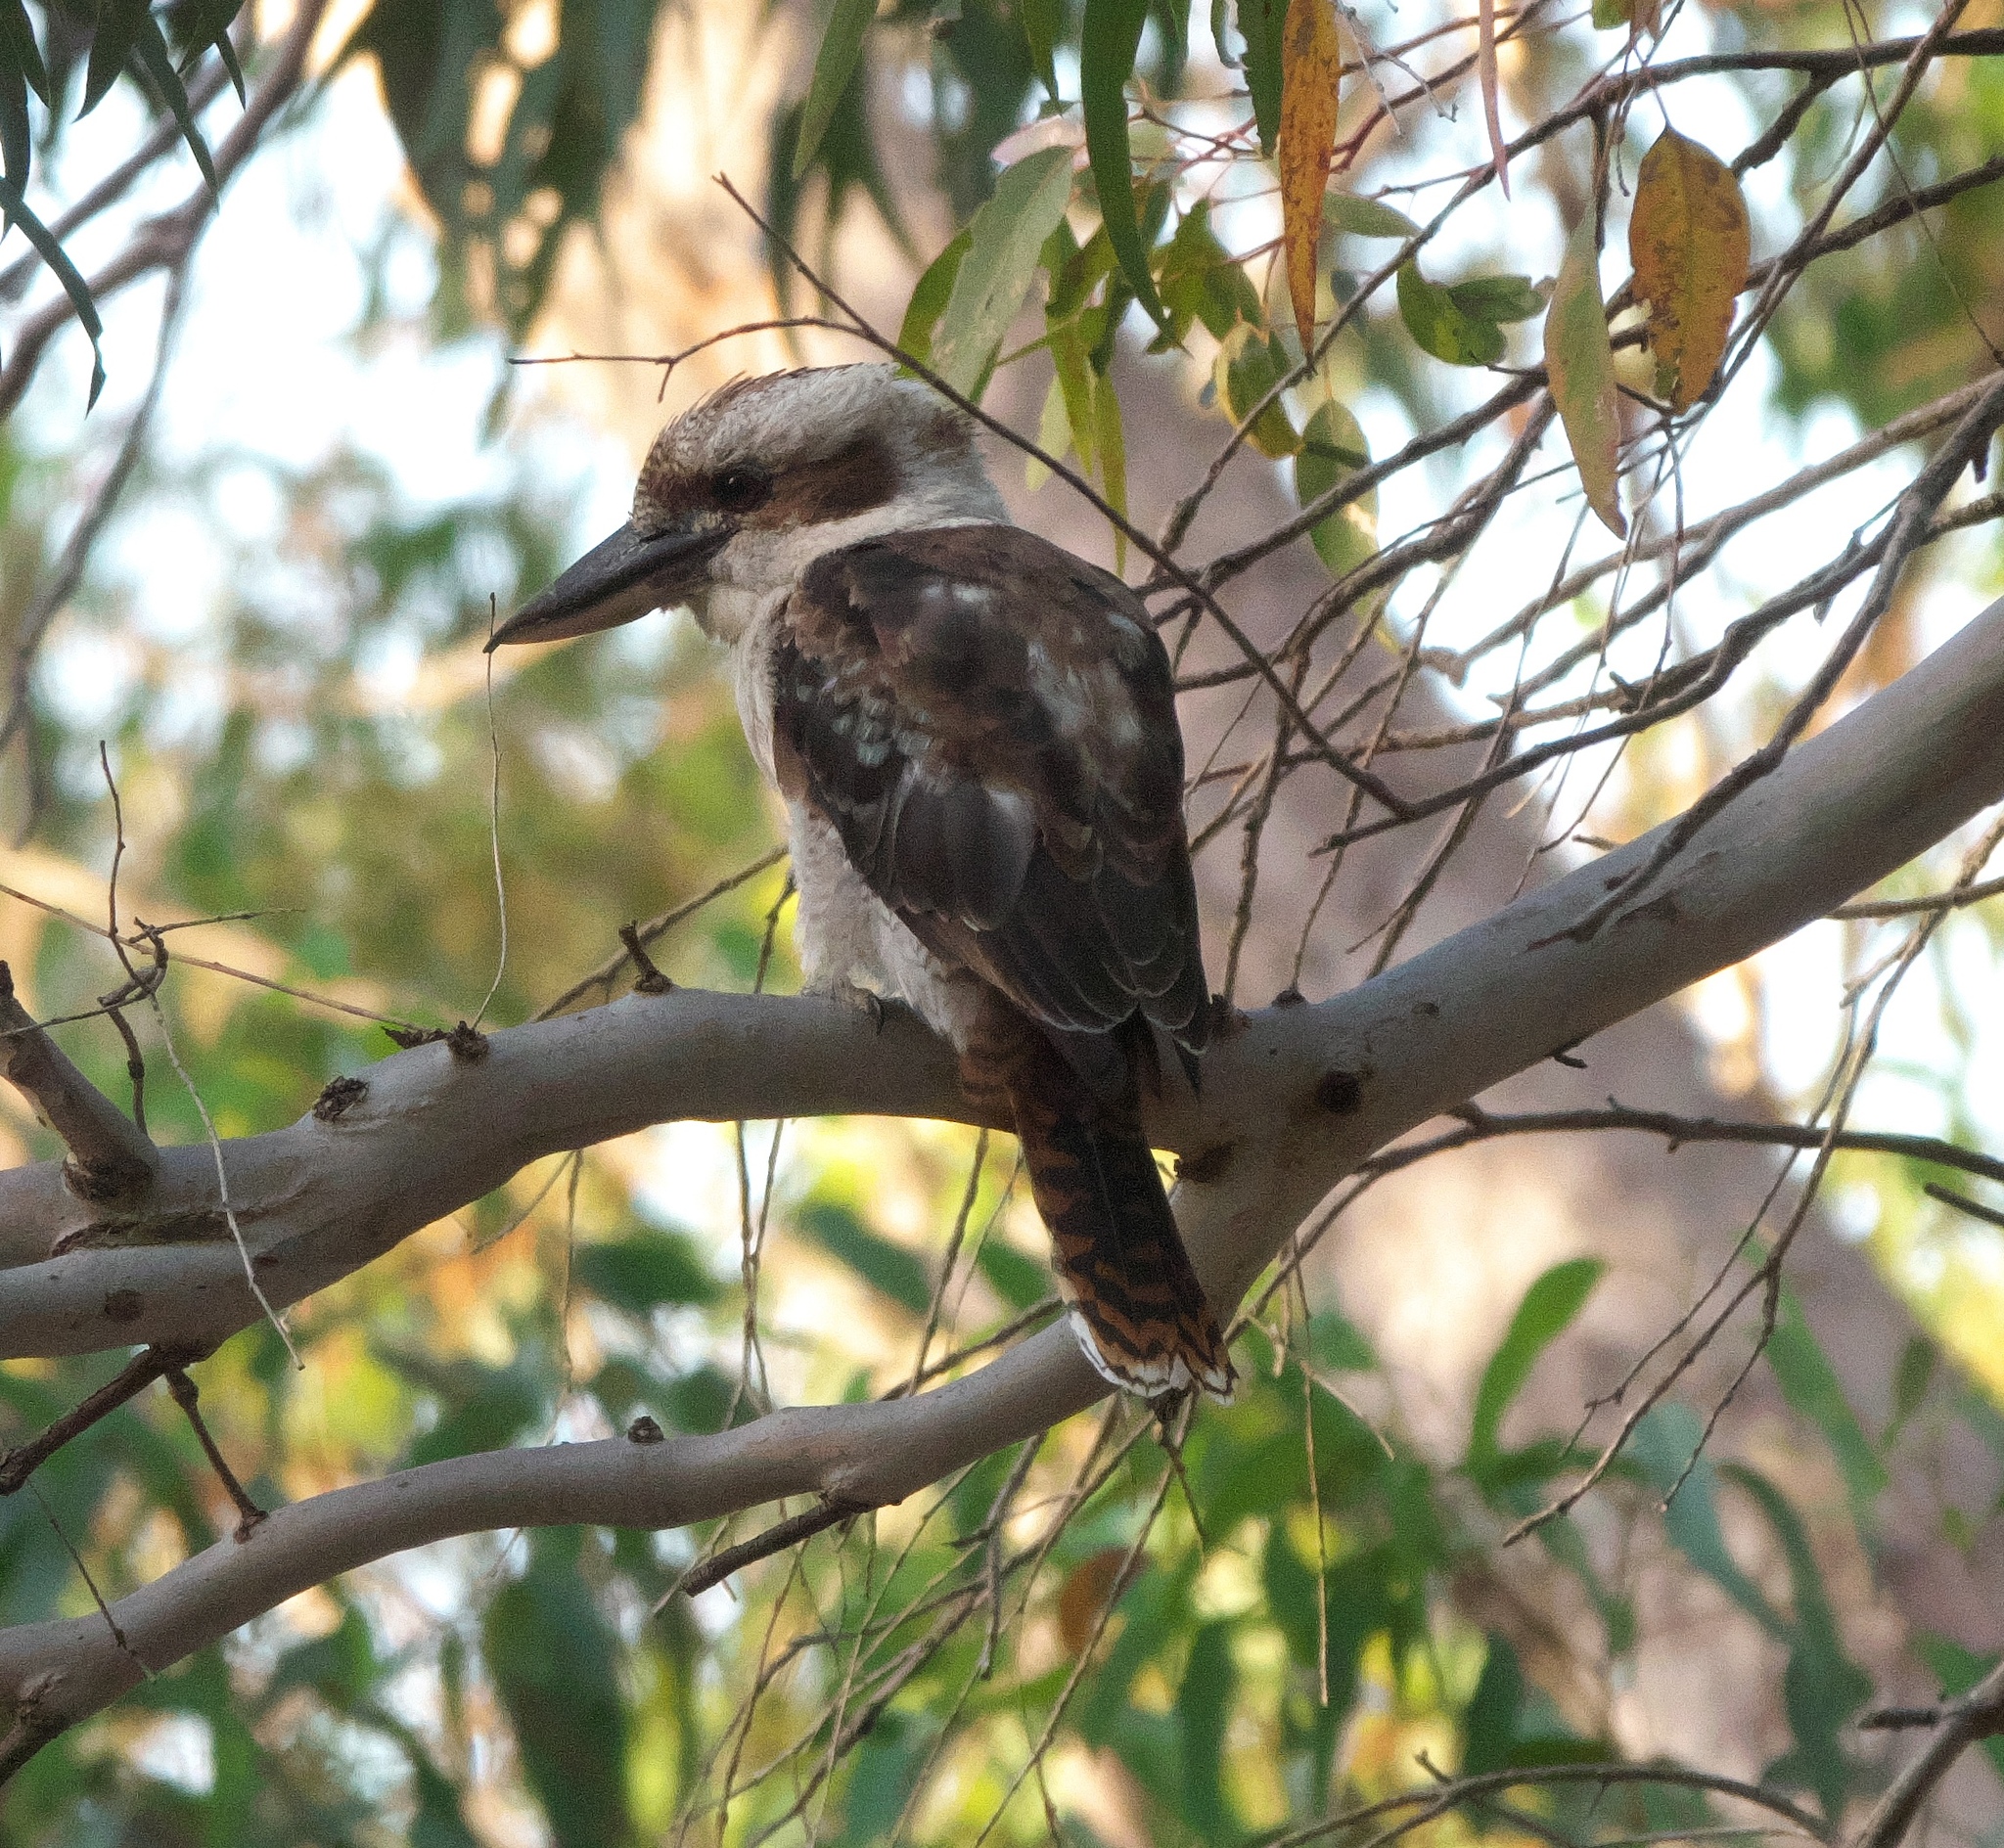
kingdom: Animalia
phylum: Chordata
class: Aves
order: Coraciiformes
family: Alcedinidae
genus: Dacelo
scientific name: Dacelo novaeguineae
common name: Laughing kookaburra
